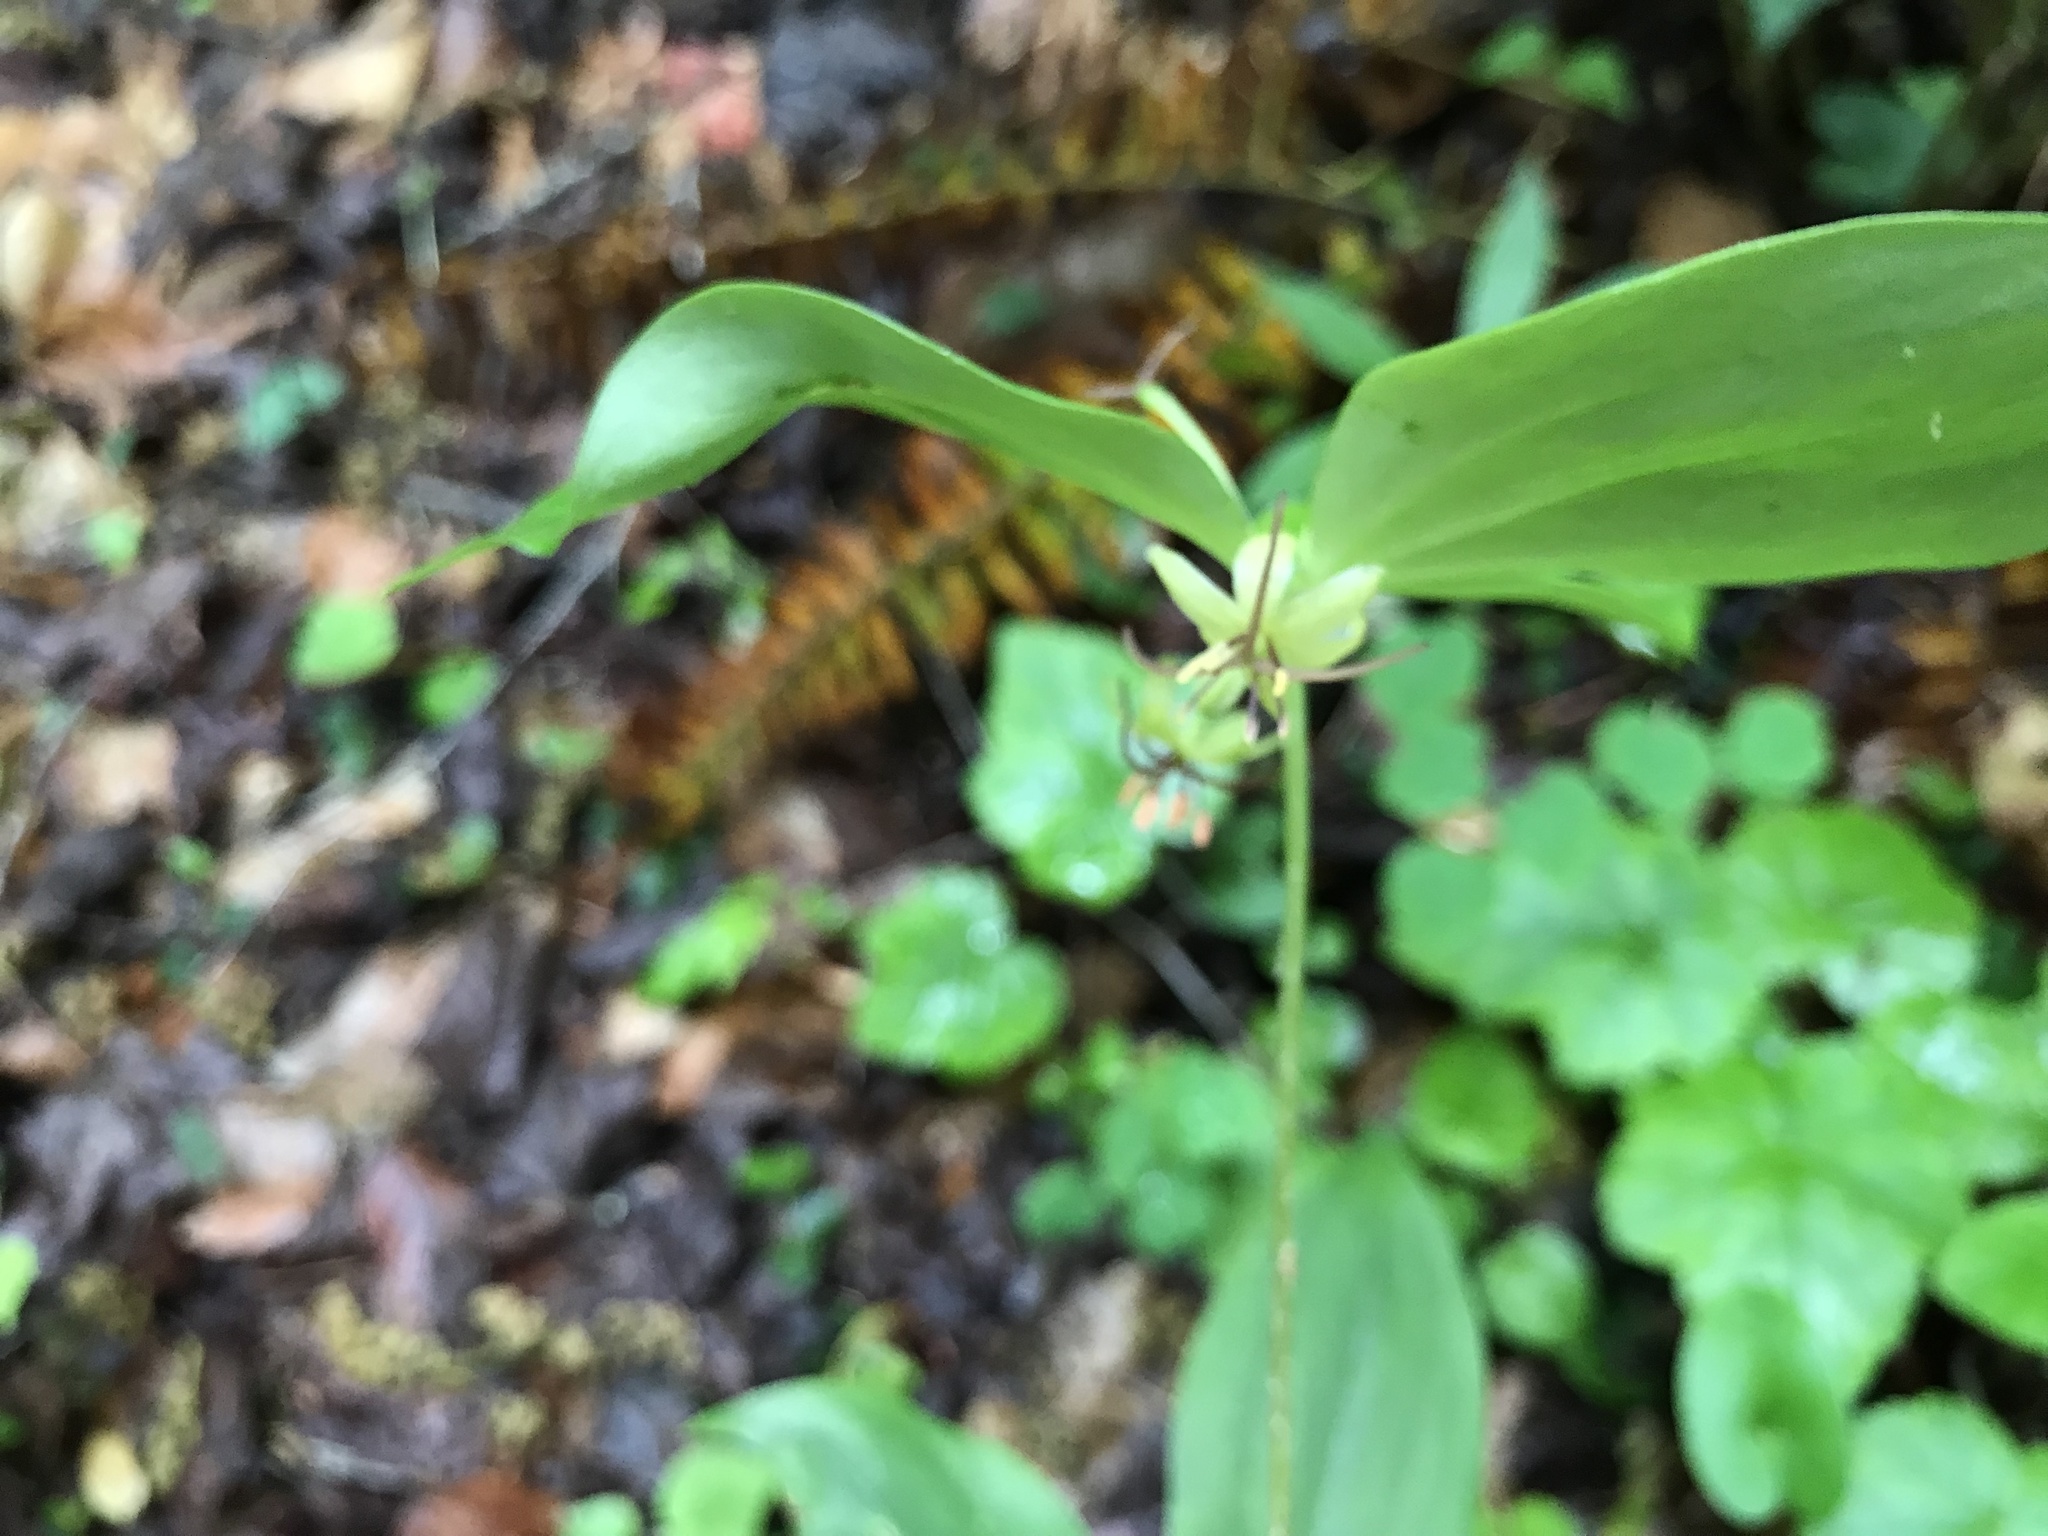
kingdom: Plantae
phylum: Tracheophyta
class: Liliopsida
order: Liliales
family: Liliaceae
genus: Medeola
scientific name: Medeola virginiana
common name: Indian cucumber-root
